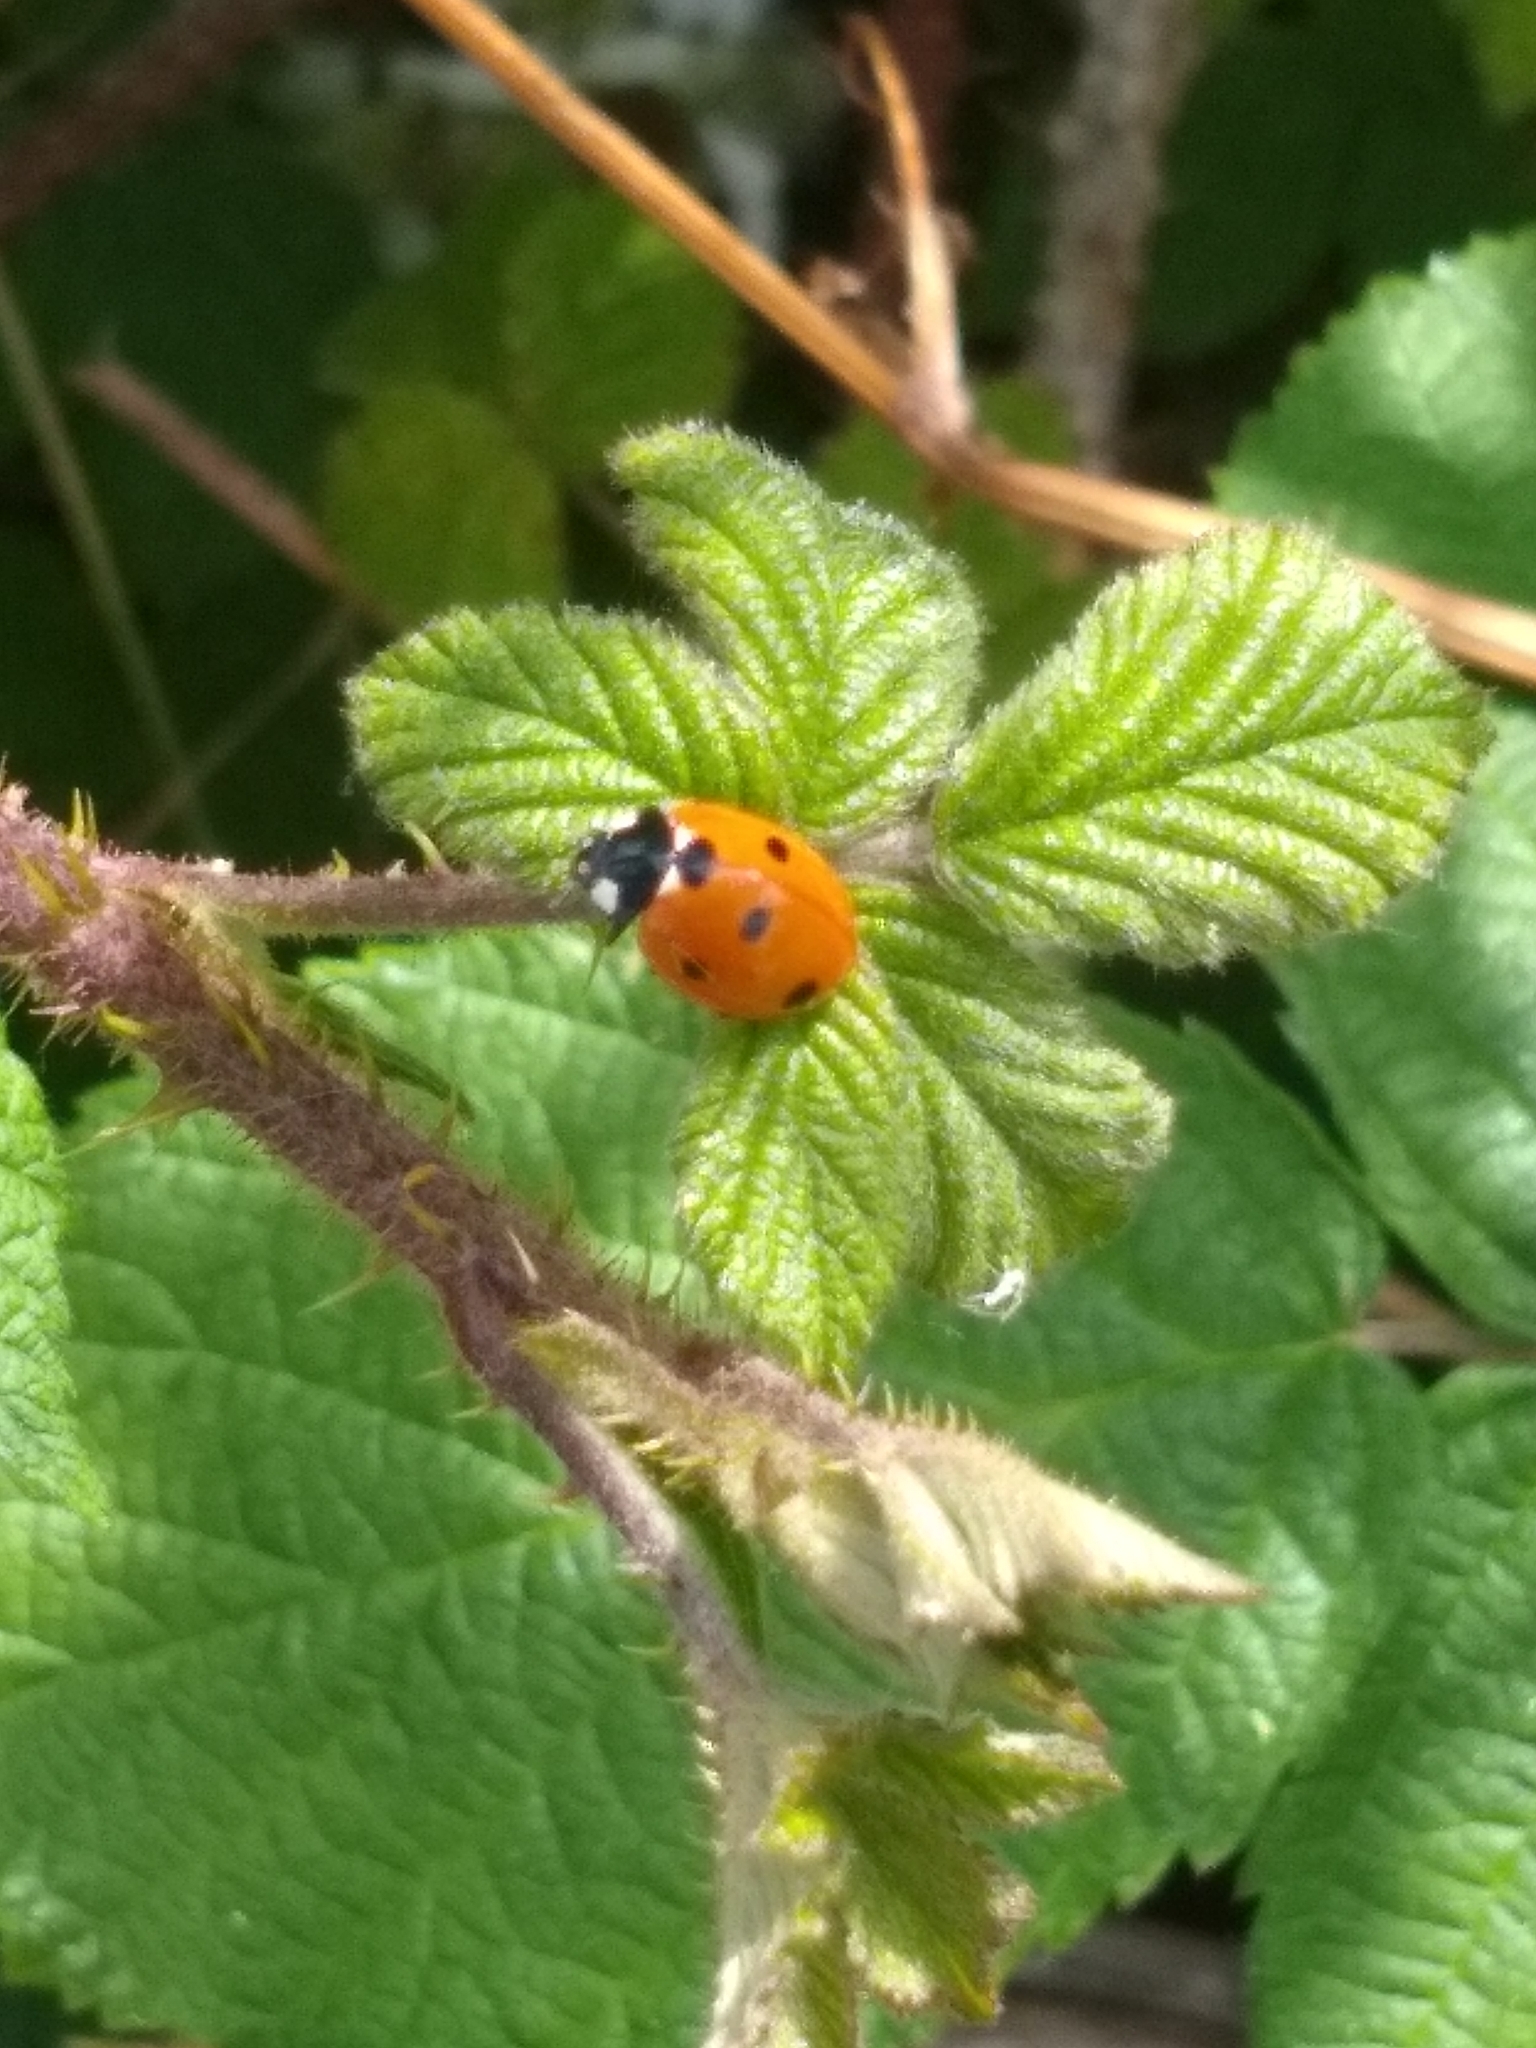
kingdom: Animalia
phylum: Arthropoda
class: Insecta
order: Coleoptera
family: Coccinellidae
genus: Coccinella
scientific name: Coccinella septempunctata
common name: Sevenspotted lady beetle
